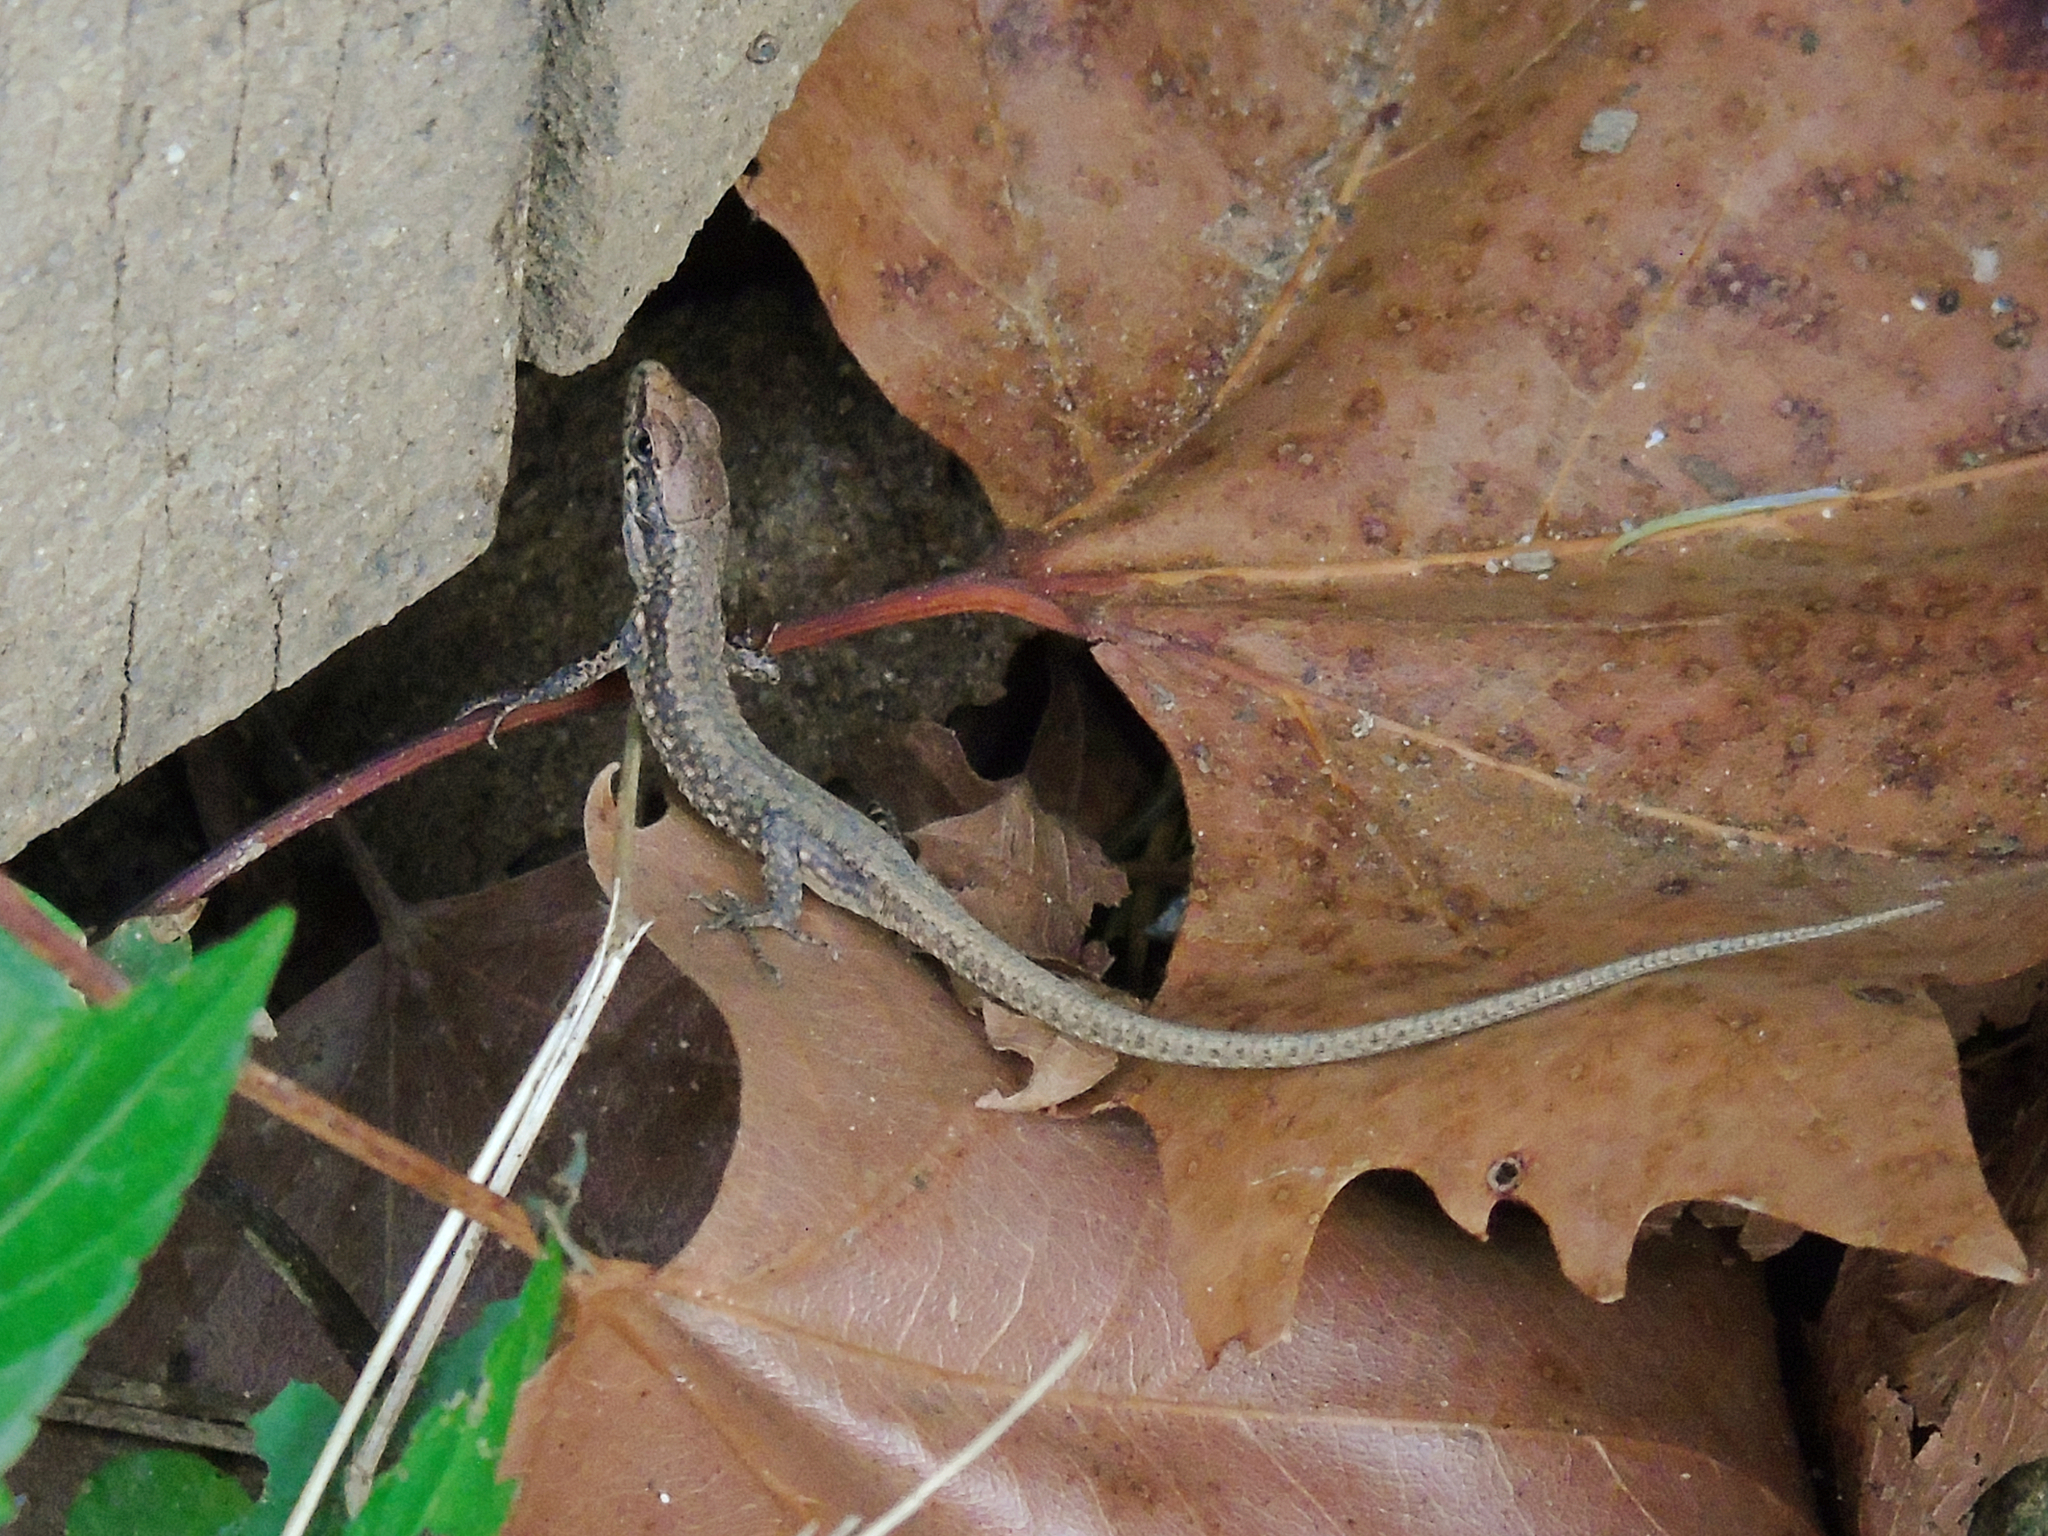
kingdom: Animalia
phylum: Chordata
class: Squamata
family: Lacertidae
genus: Darevskia
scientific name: Darevskia rudis
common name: Spiny-tailed lizard
